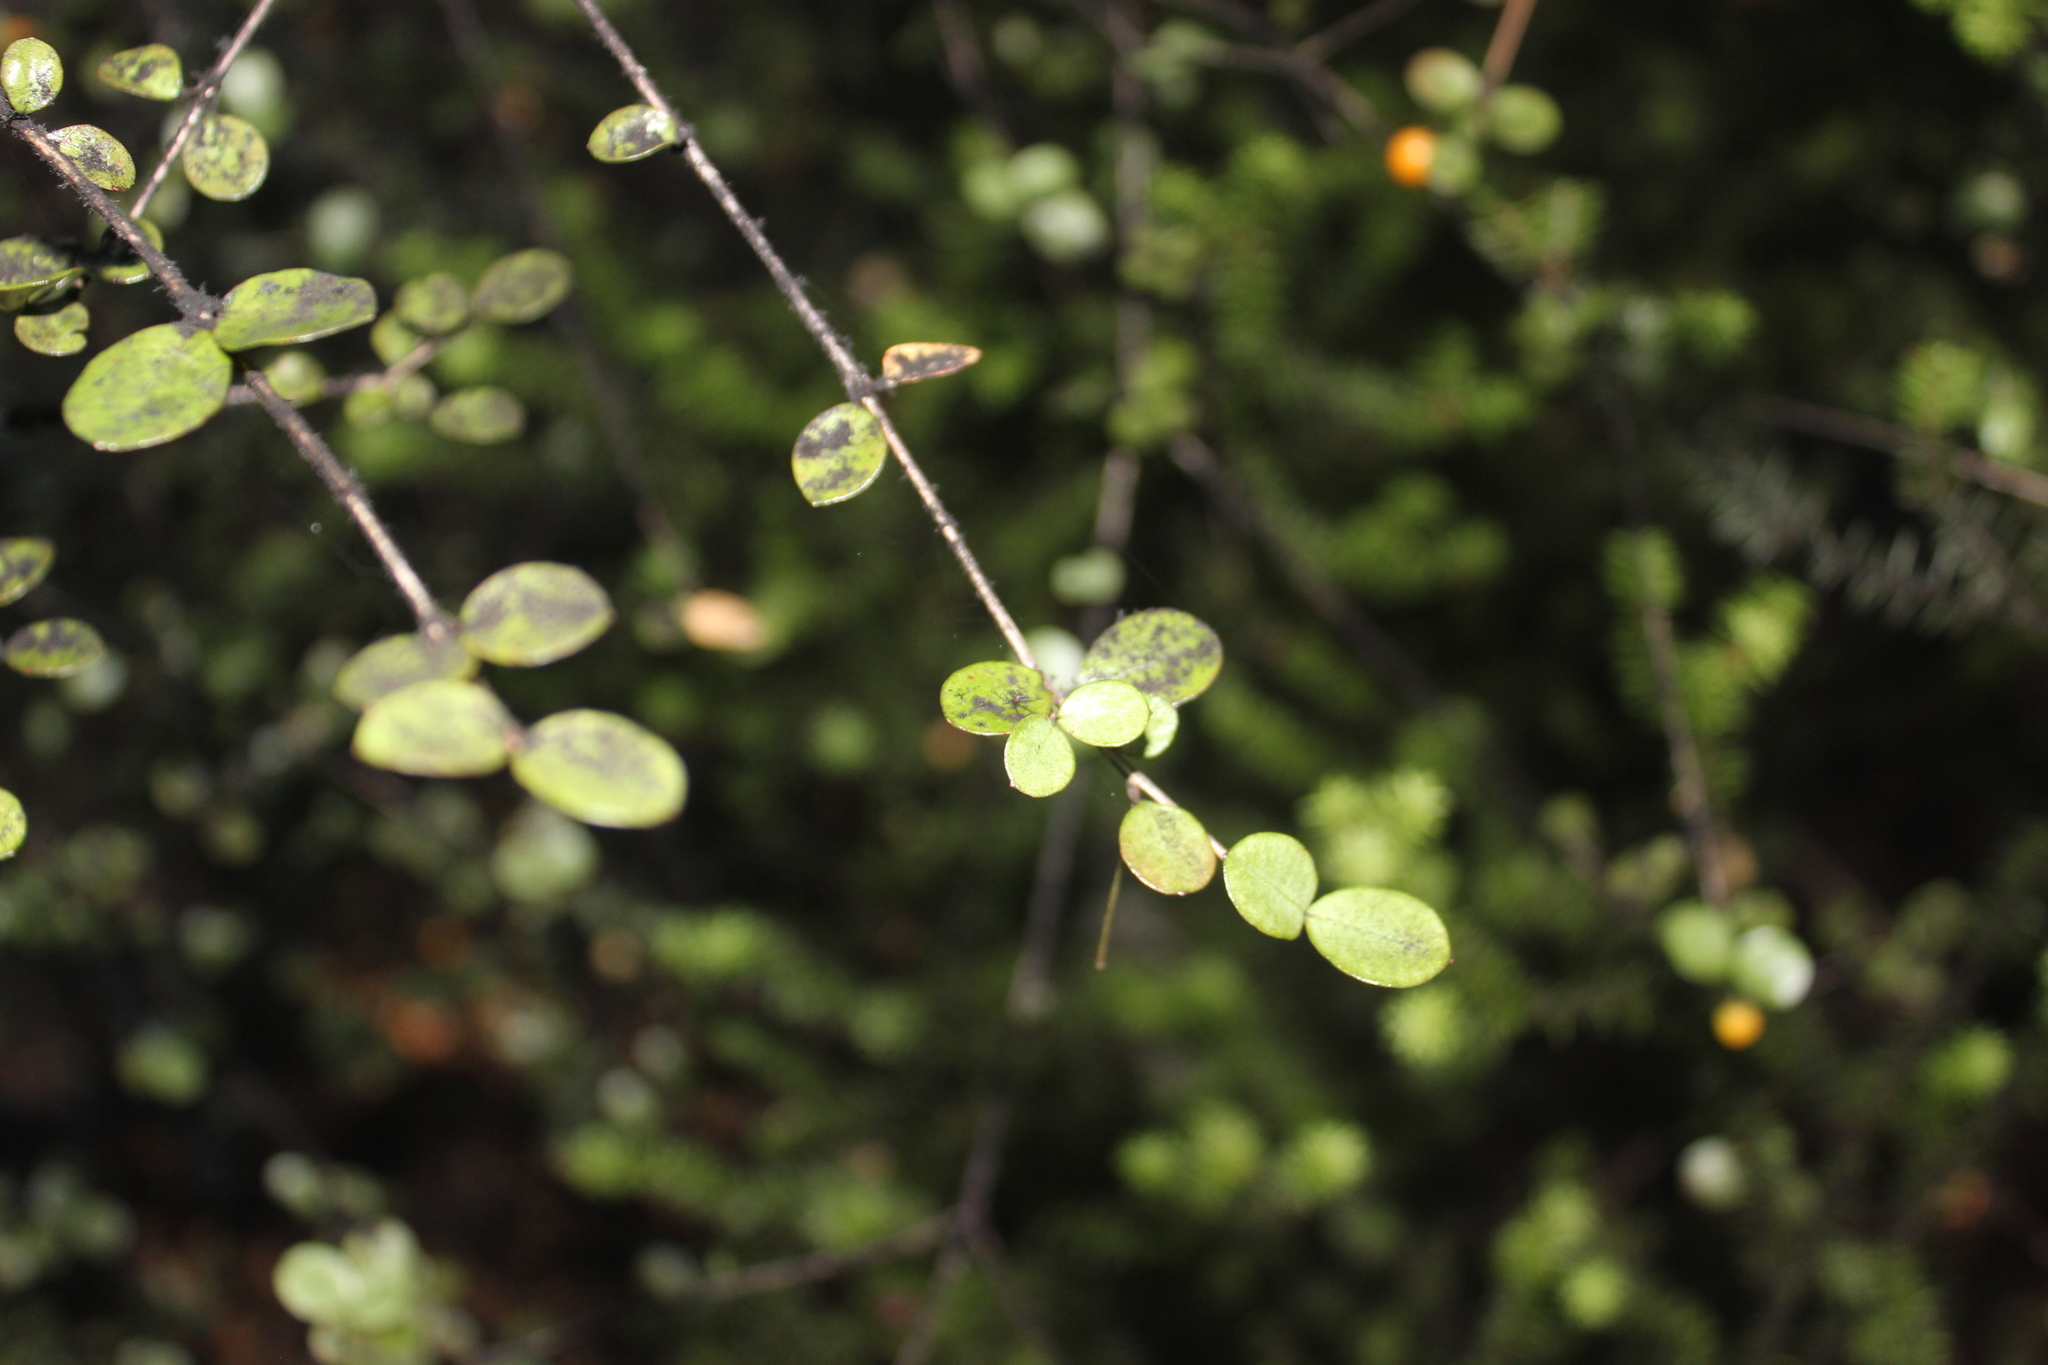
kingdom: Plantae
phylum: Tracheophyta
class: Magnoliopsida
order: Myrtales
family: Myrtaceae
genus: Neomyrtus
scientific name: Neomyrtus pedunculata
